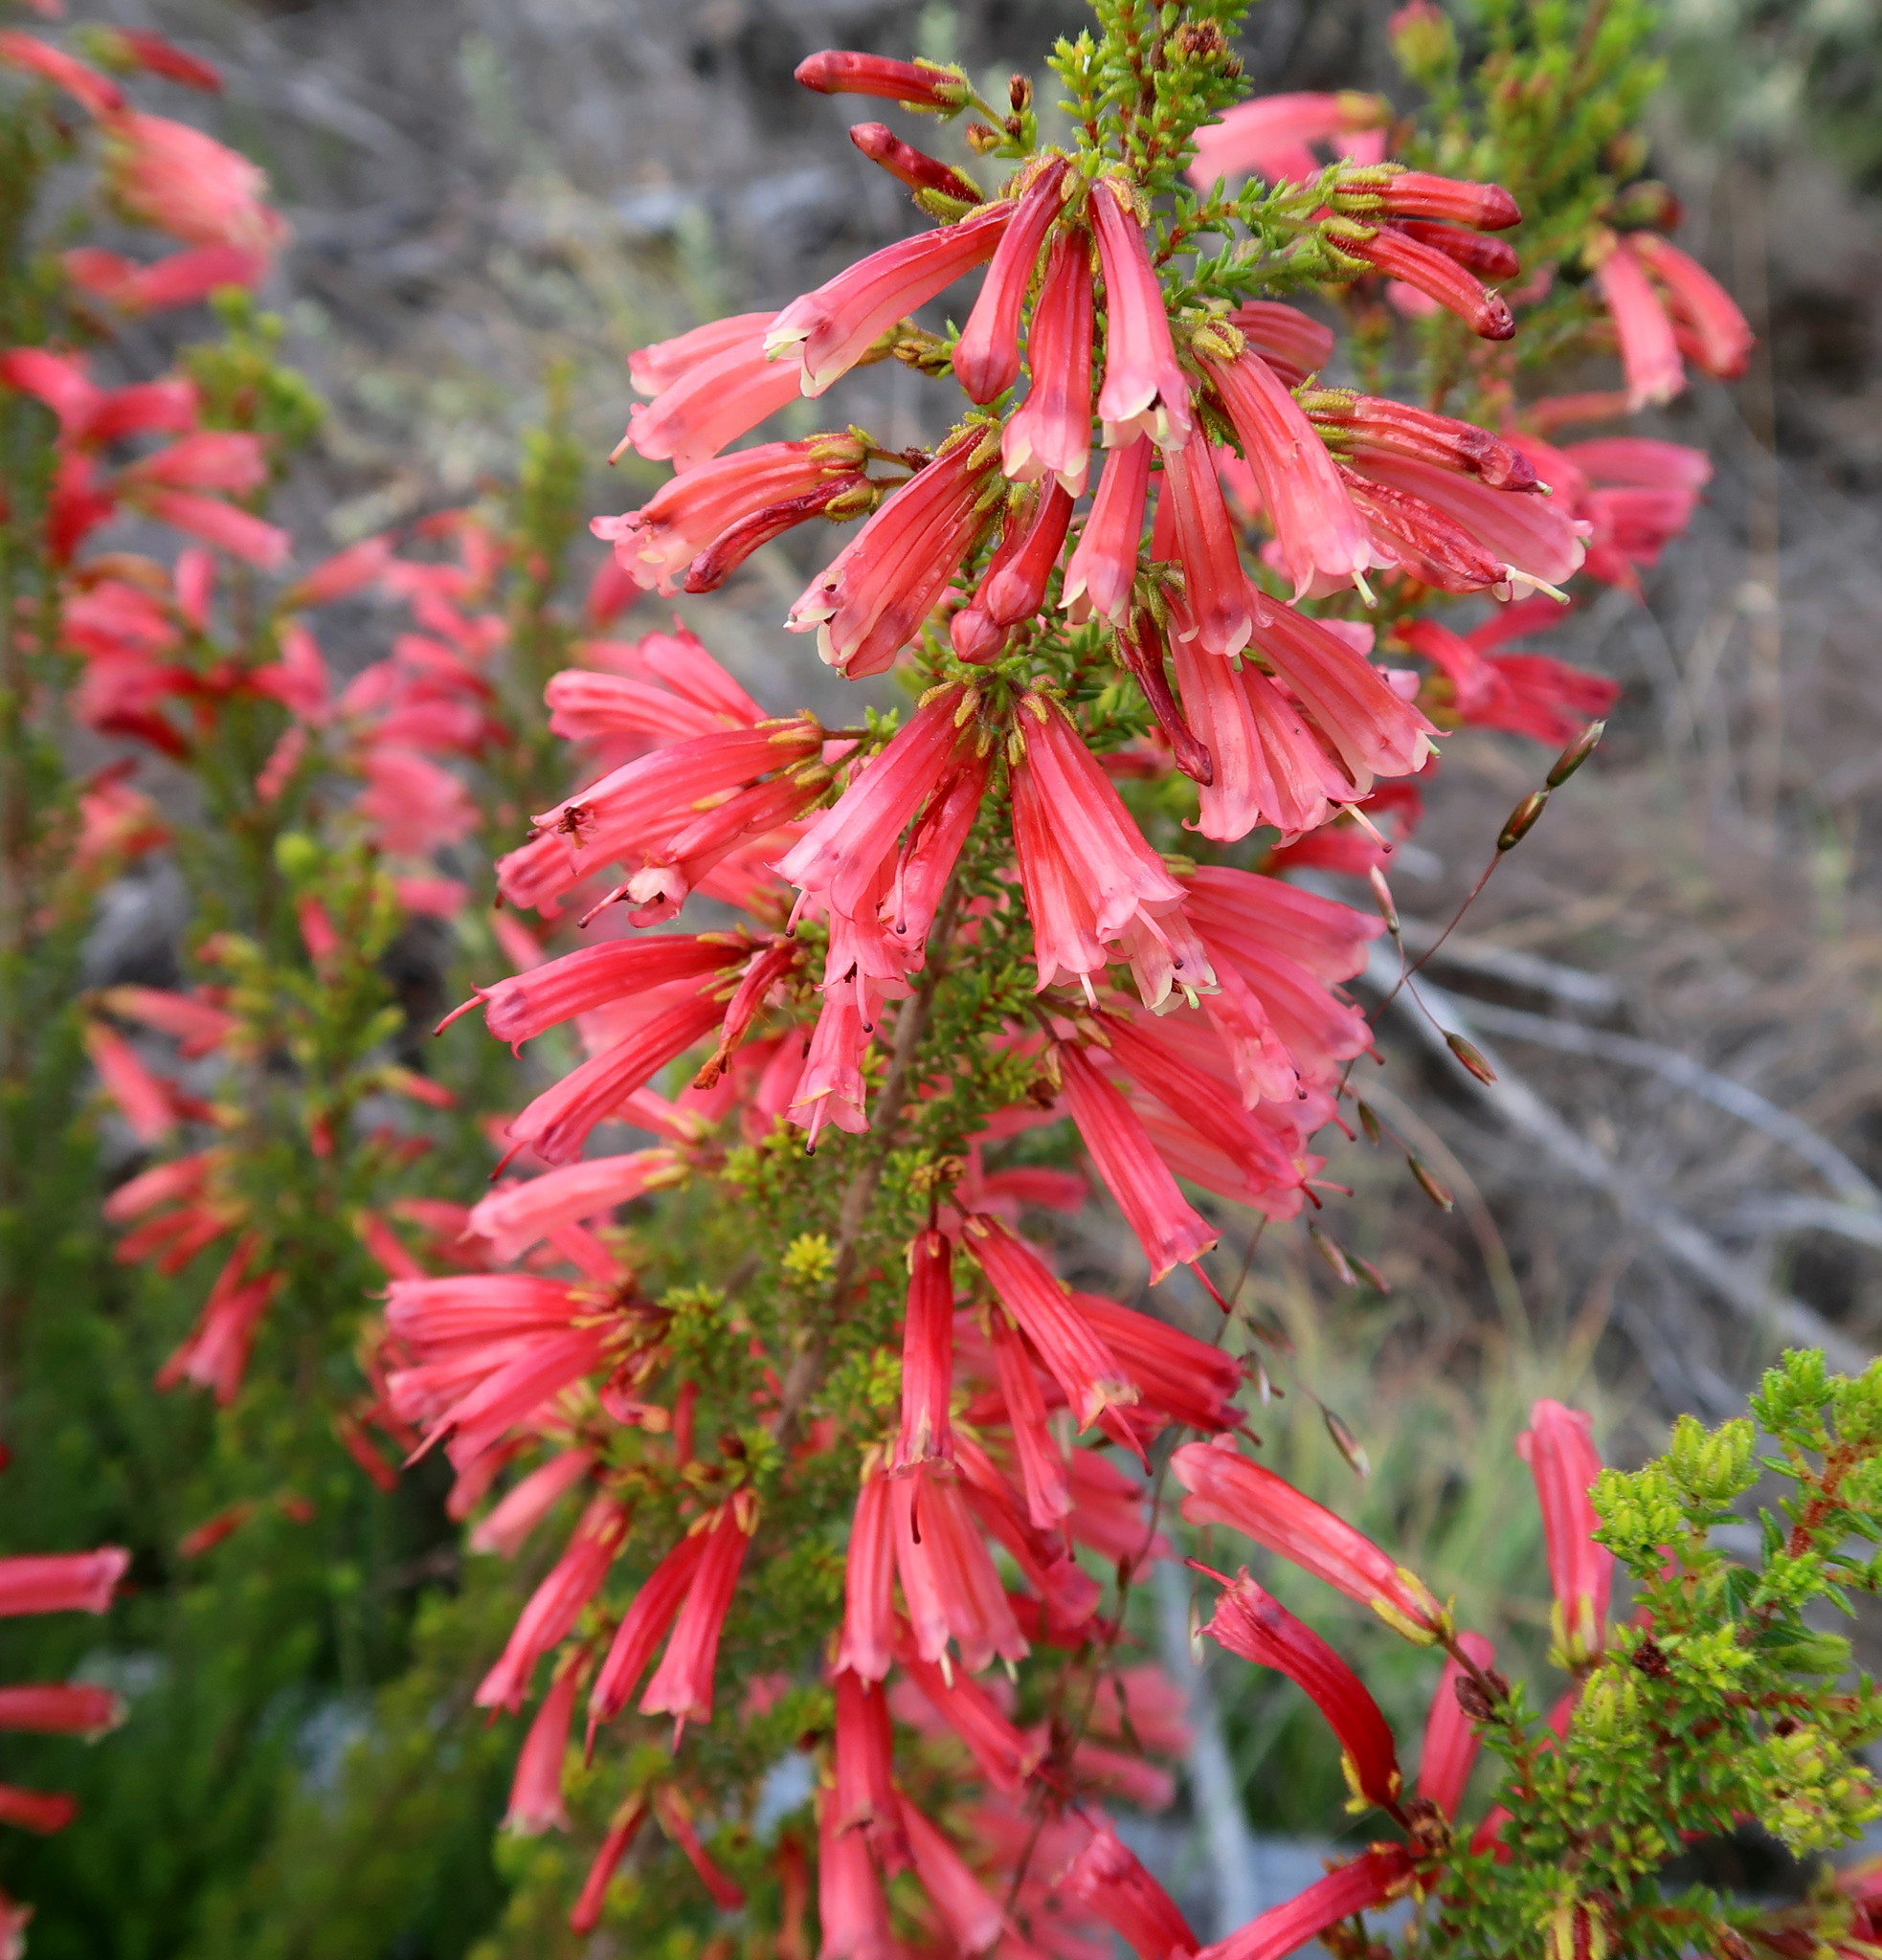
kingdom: Plantae
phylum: Tracheophyta
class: Magnoliopsida
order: Ericales
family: Ericaceae
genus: Erica
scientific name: Erica glandulosa
